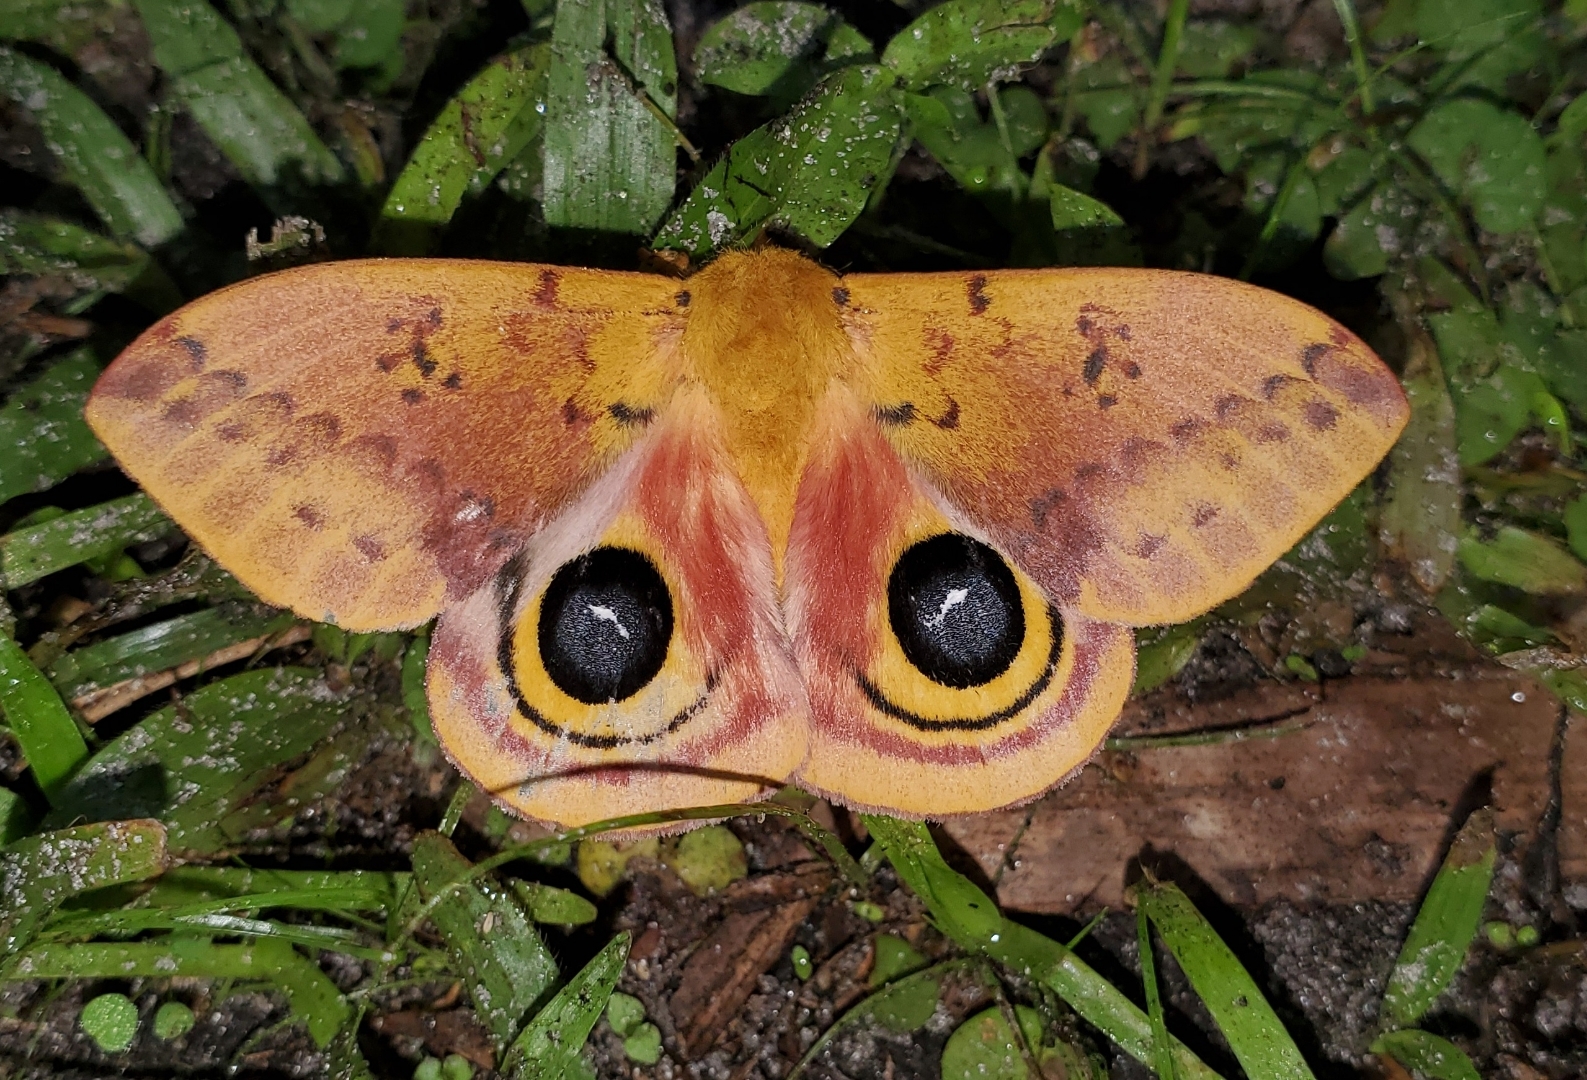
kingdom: Animalia
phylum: Arthropoda
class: Insecta
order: Lepidoptera
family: Saturniidae
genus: Automeris
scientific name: Automeris io
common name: Io moth
